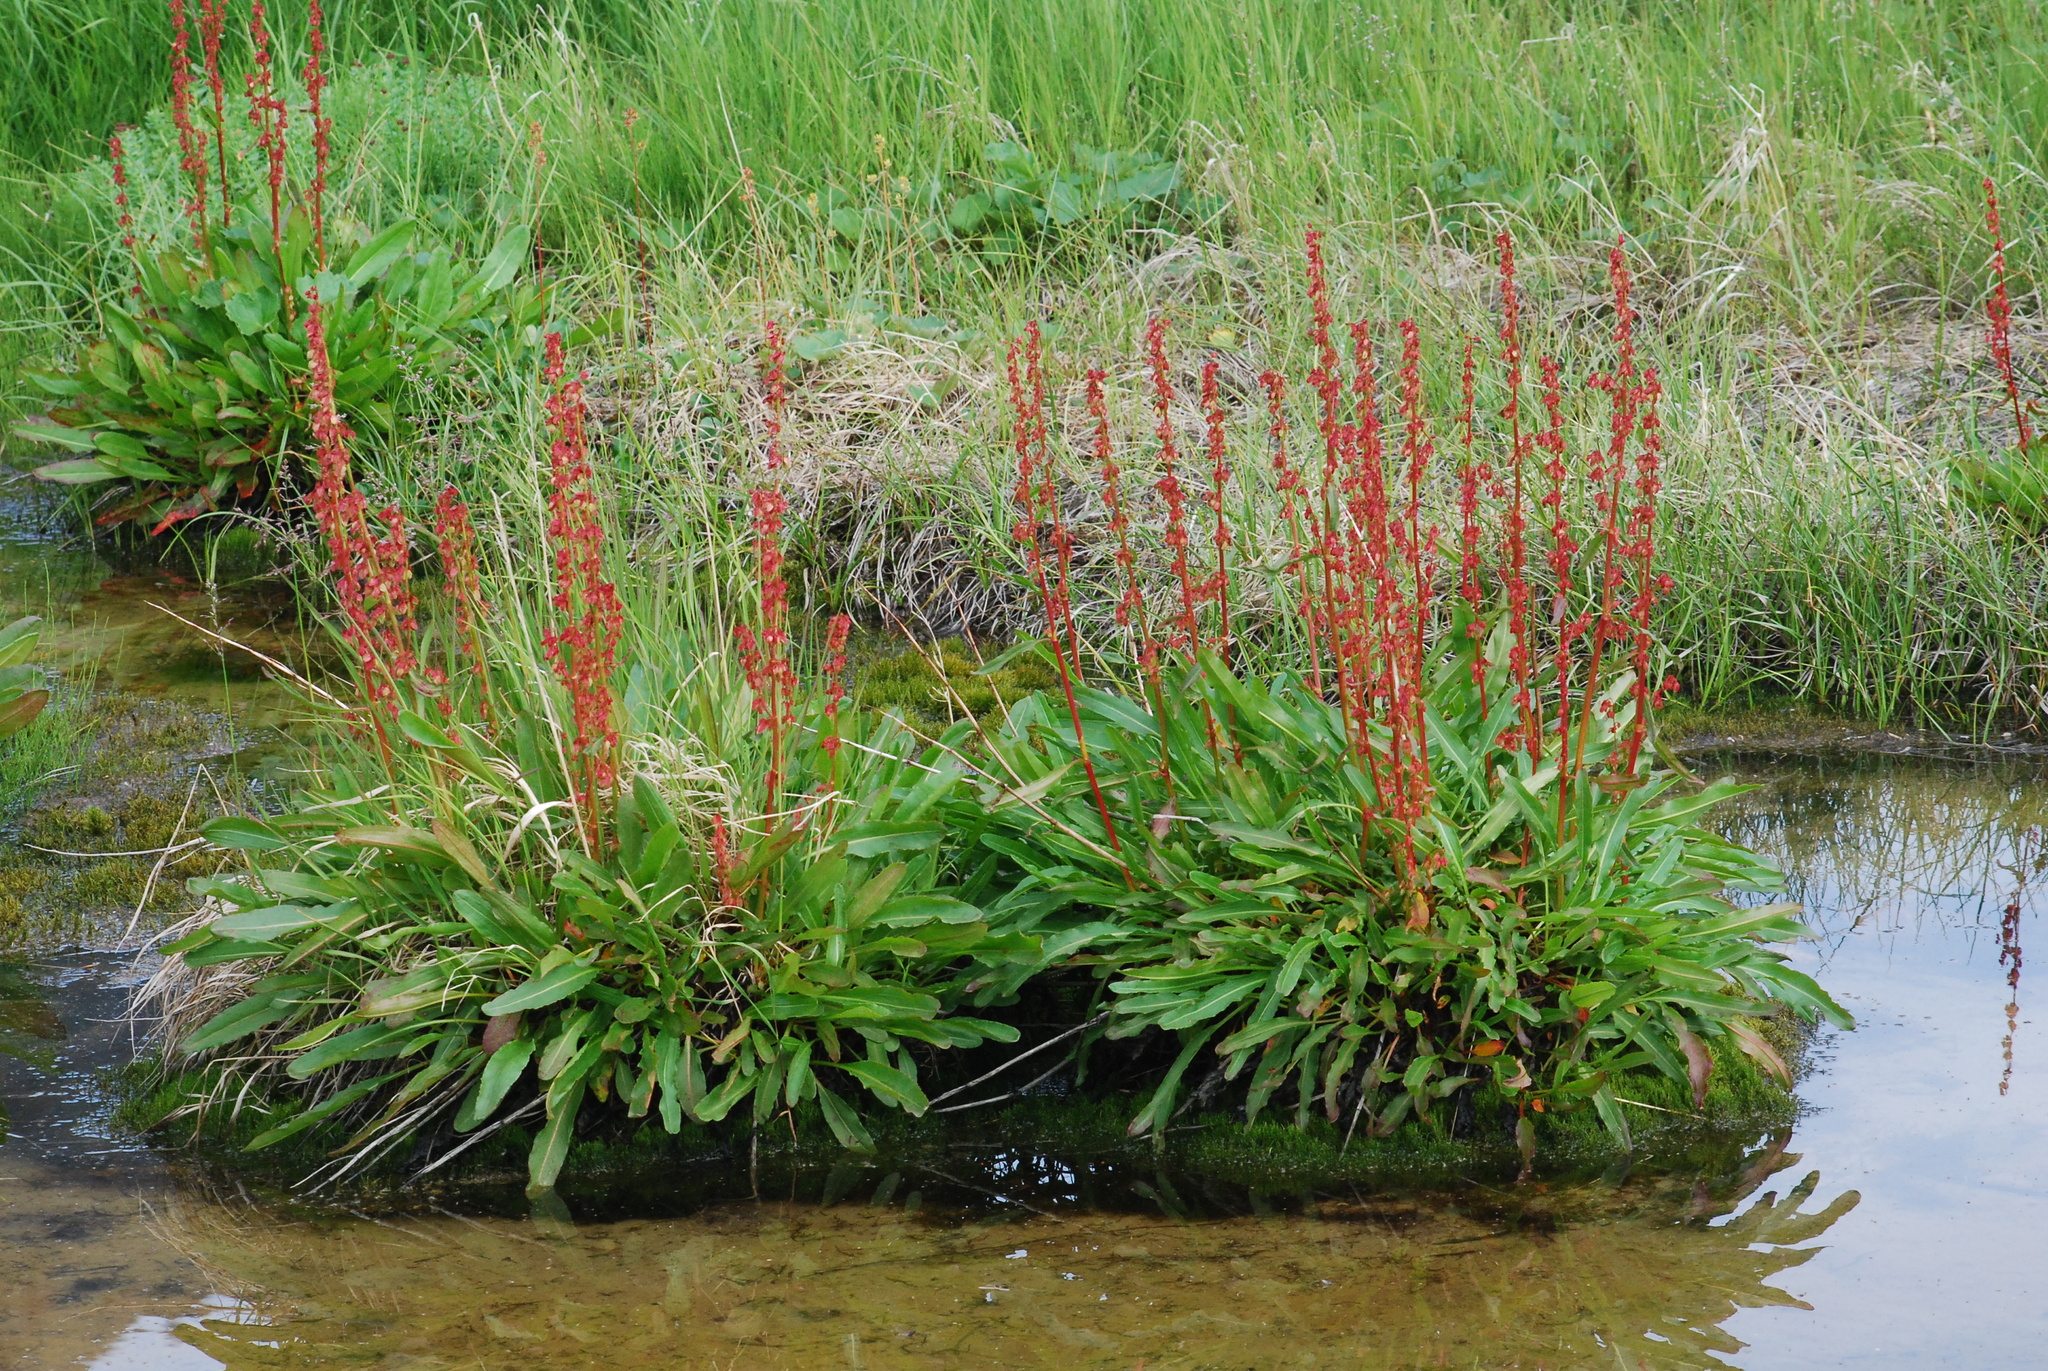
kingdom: Plantae
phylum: Tracheophyta
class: Magnoliopsida
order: Caryophyllales
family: Polygonaceae
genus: Rumex
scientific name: Rumex arcticus
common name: Arctic dock
